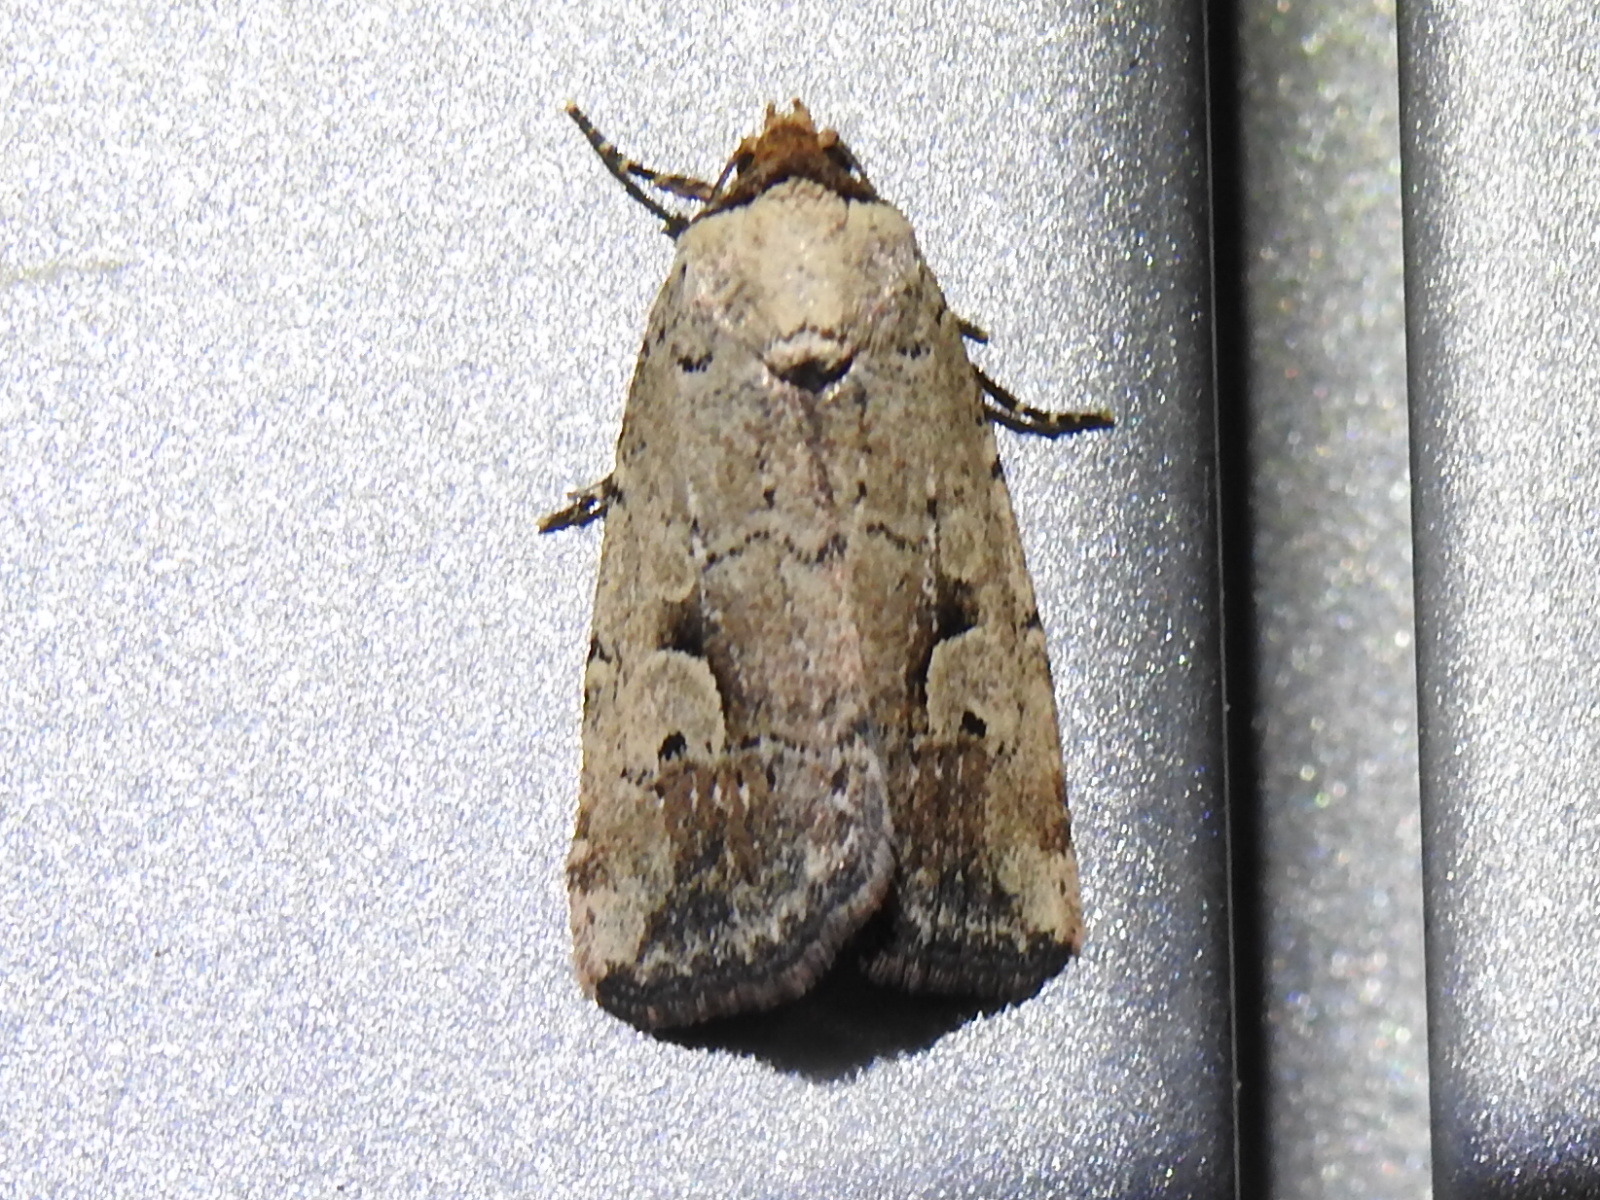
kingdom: Animalia
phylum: Arthropoda
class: Insecta
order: Lepidoptera
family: Noctuidae
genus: Elaphria
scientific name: Elaphria festivoides
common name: Festive midget
